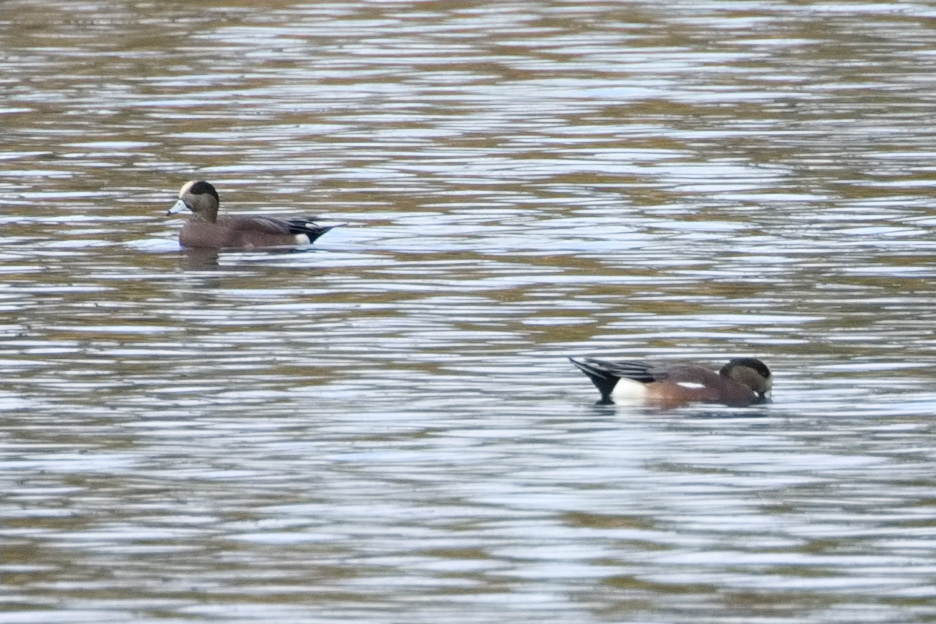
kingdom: Animalia
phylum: Chordata
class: Aves
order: Anseriformes
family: Anatidae
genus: Mareca
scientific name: Mareca americana
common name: American wigeon
